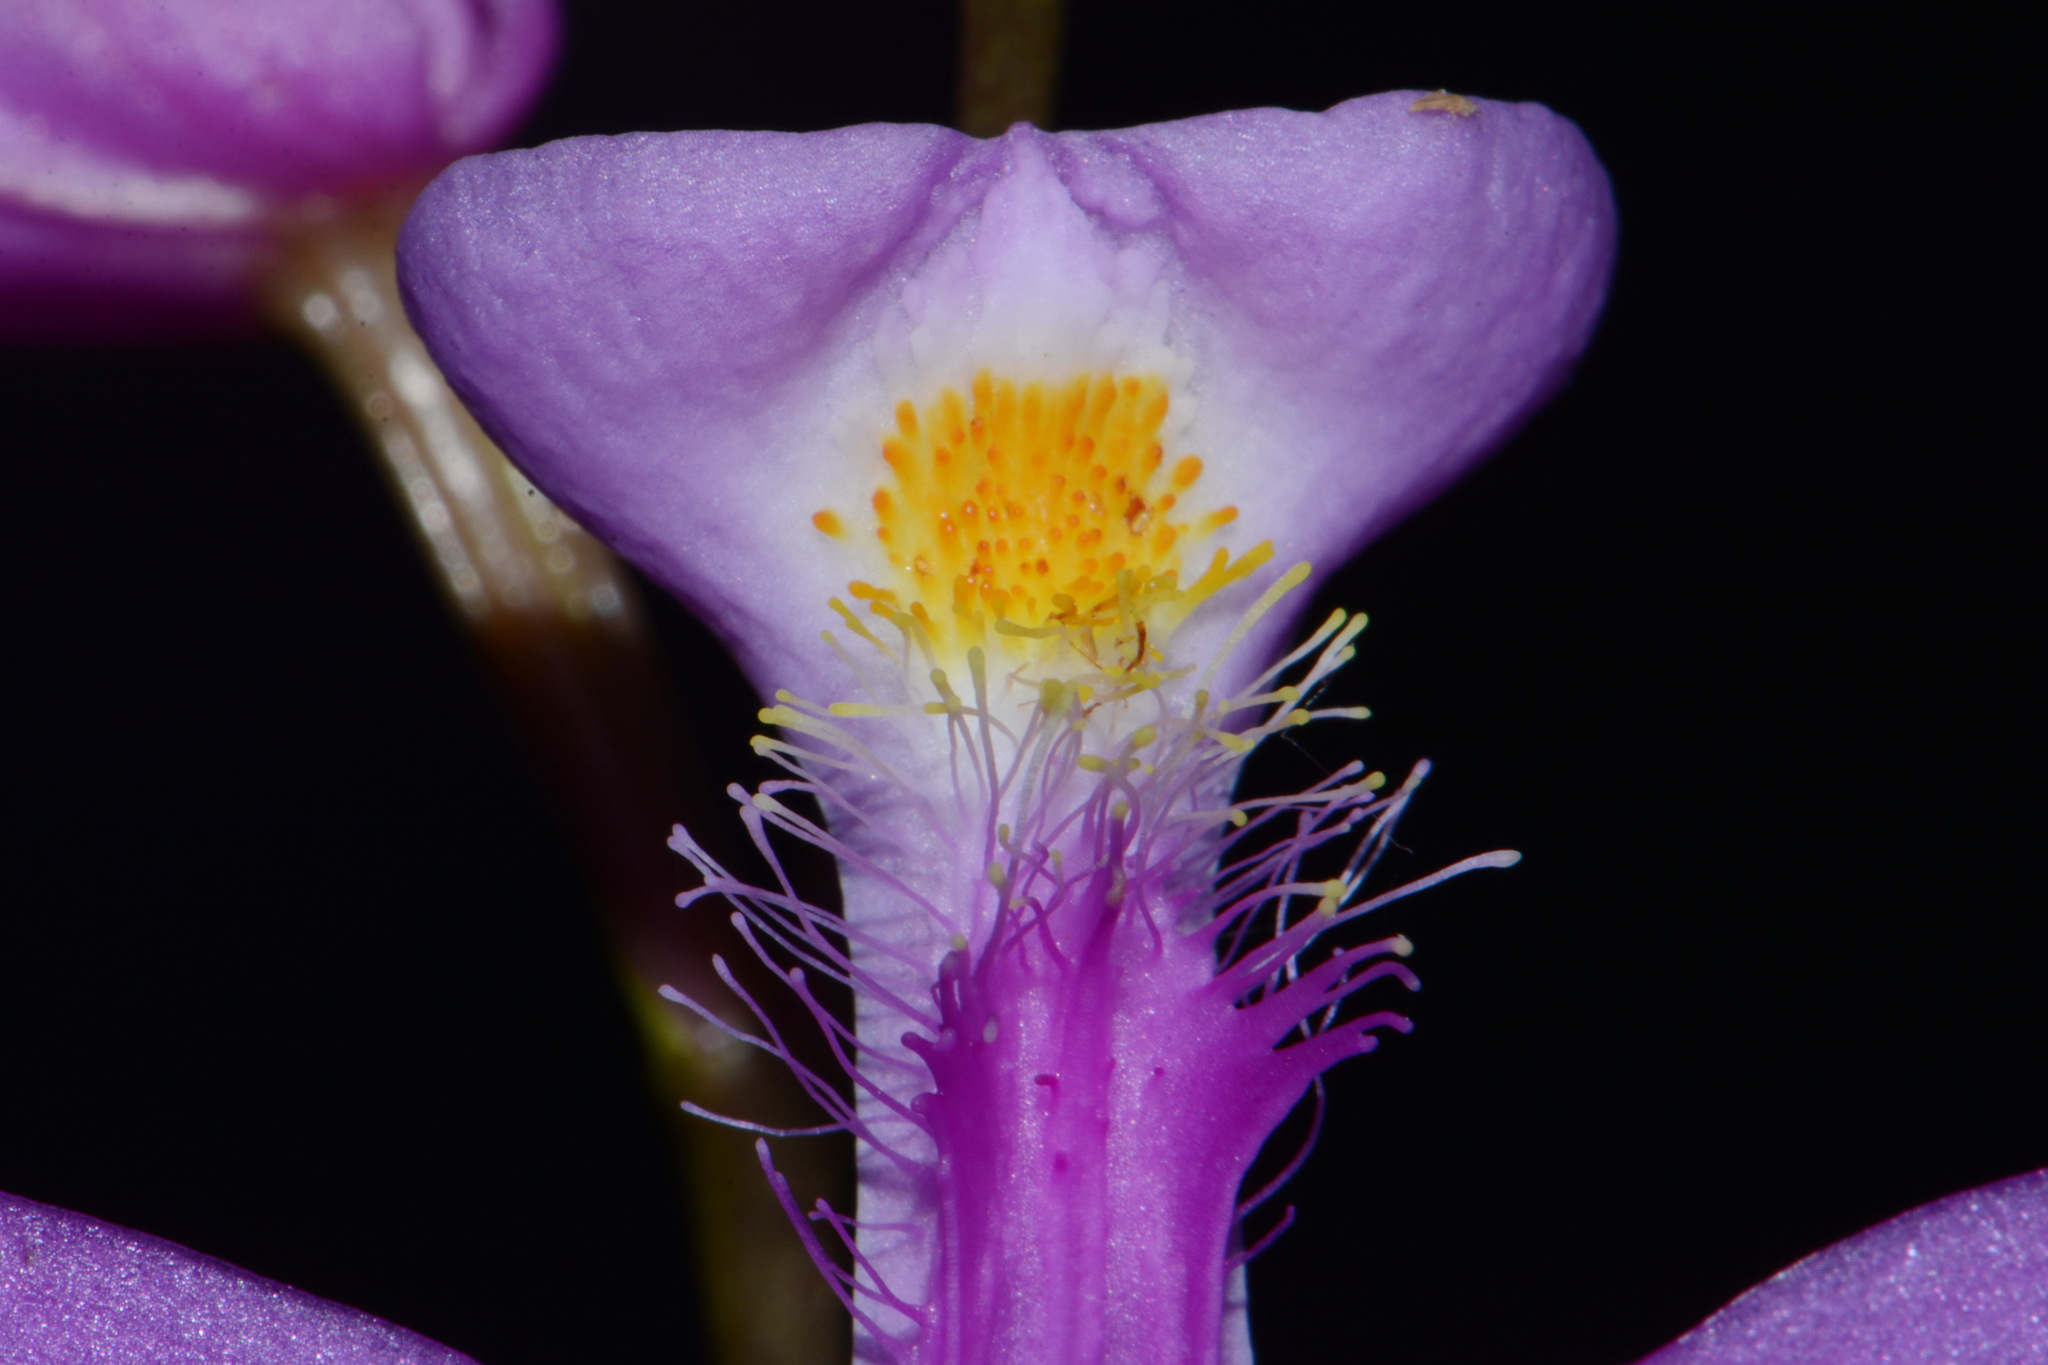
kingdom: Plantae
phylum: Tracheophyta
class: Liliopsida
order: Asparagales
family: Orchidaceae
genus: Calopogon
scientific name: Calopogon tuberosus
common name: Grass-pink
